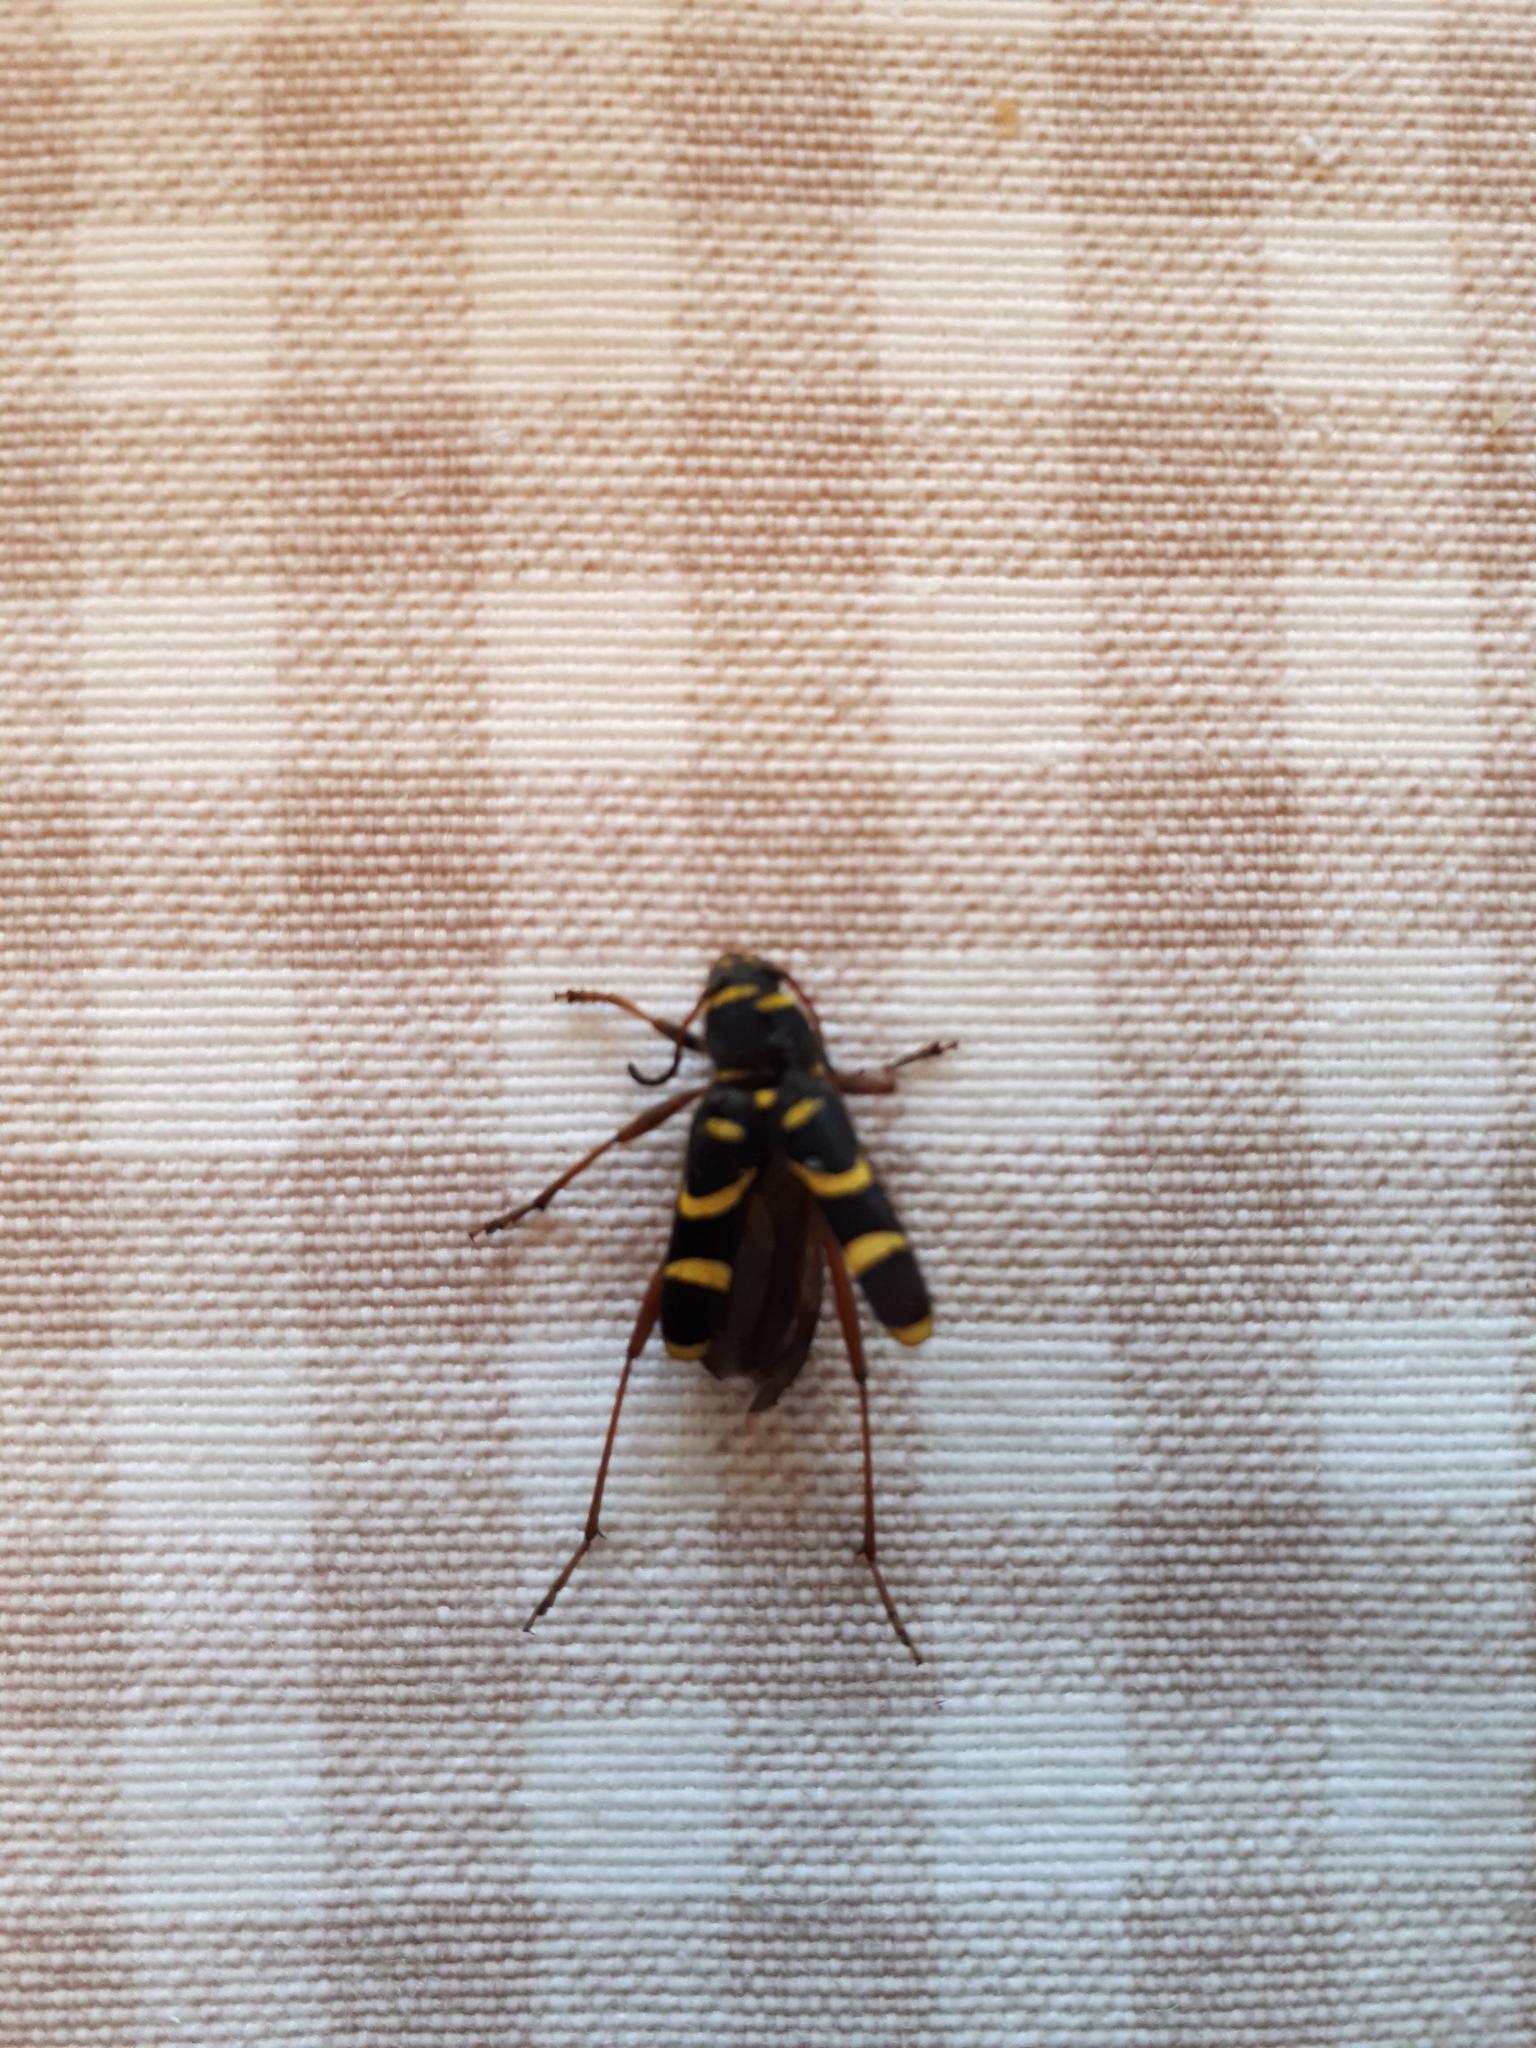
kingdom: Animalia
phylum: Arthropoda
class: Insecta
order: Coleoptera
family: Cerambycidae
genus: Clytus
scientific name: Clytus arietis
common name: Wasp beetle
